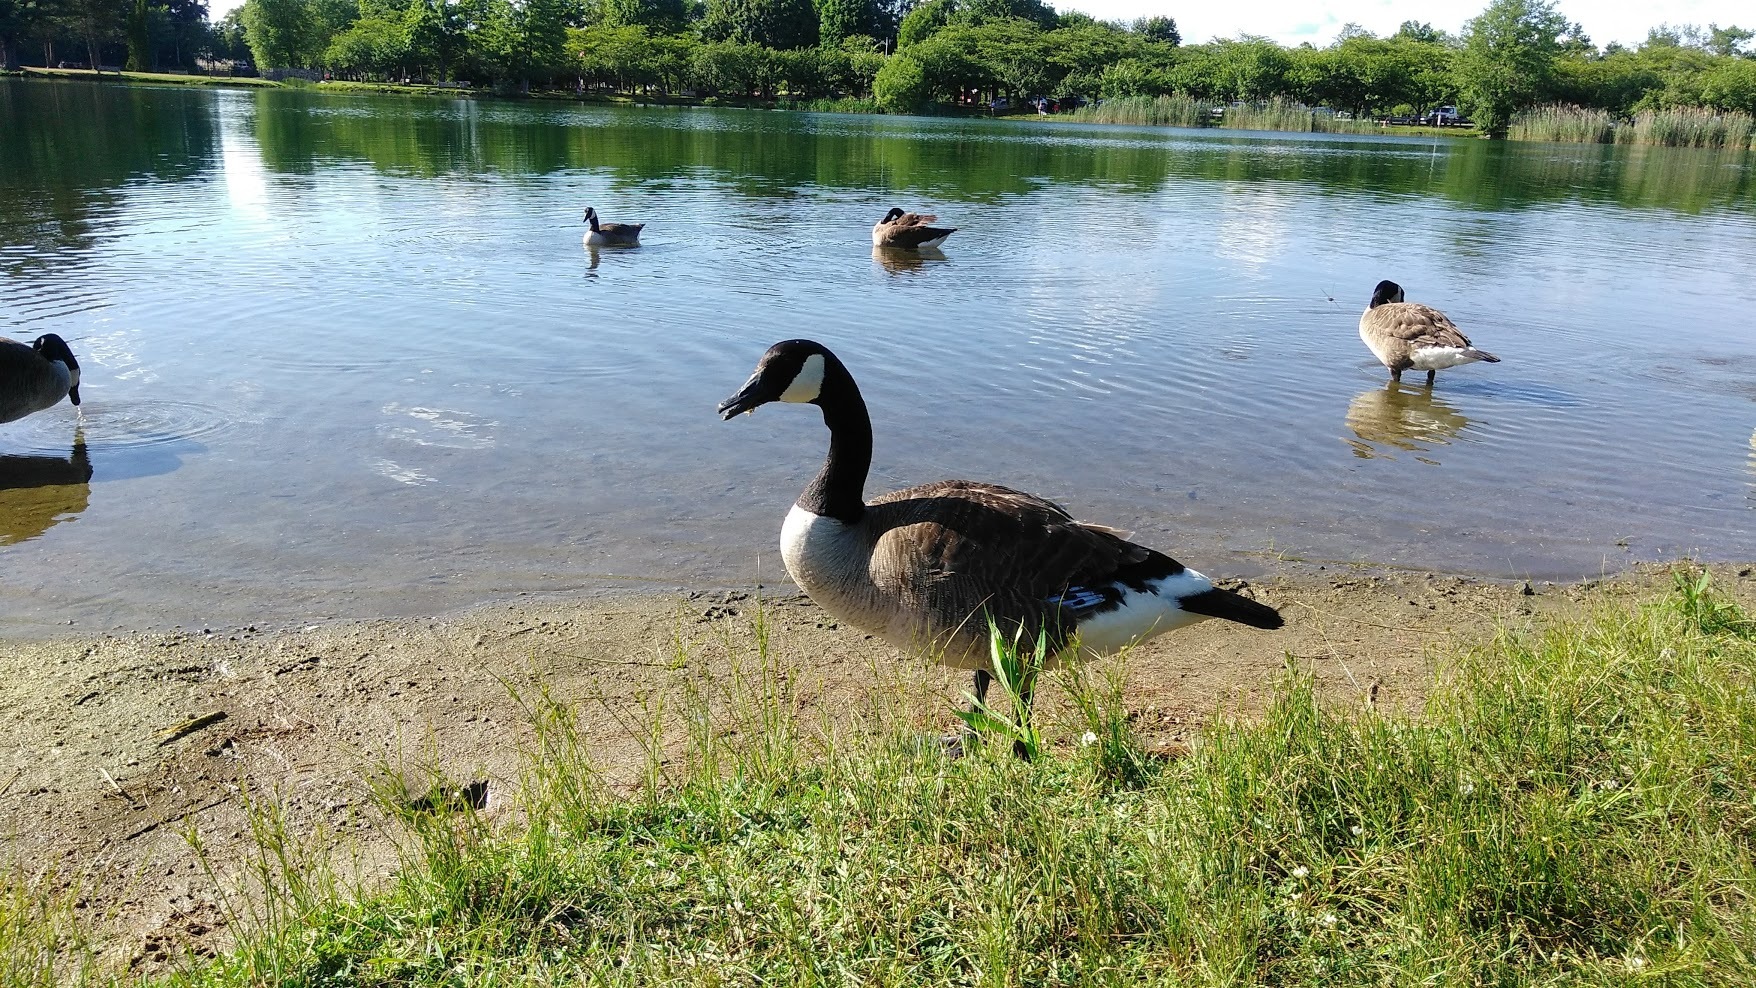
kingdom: Animalia
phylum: Chordata
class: Aves
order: Anseriformes
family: Anatidae
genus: Branta
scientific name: Branta canadensis
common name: Canada goose
